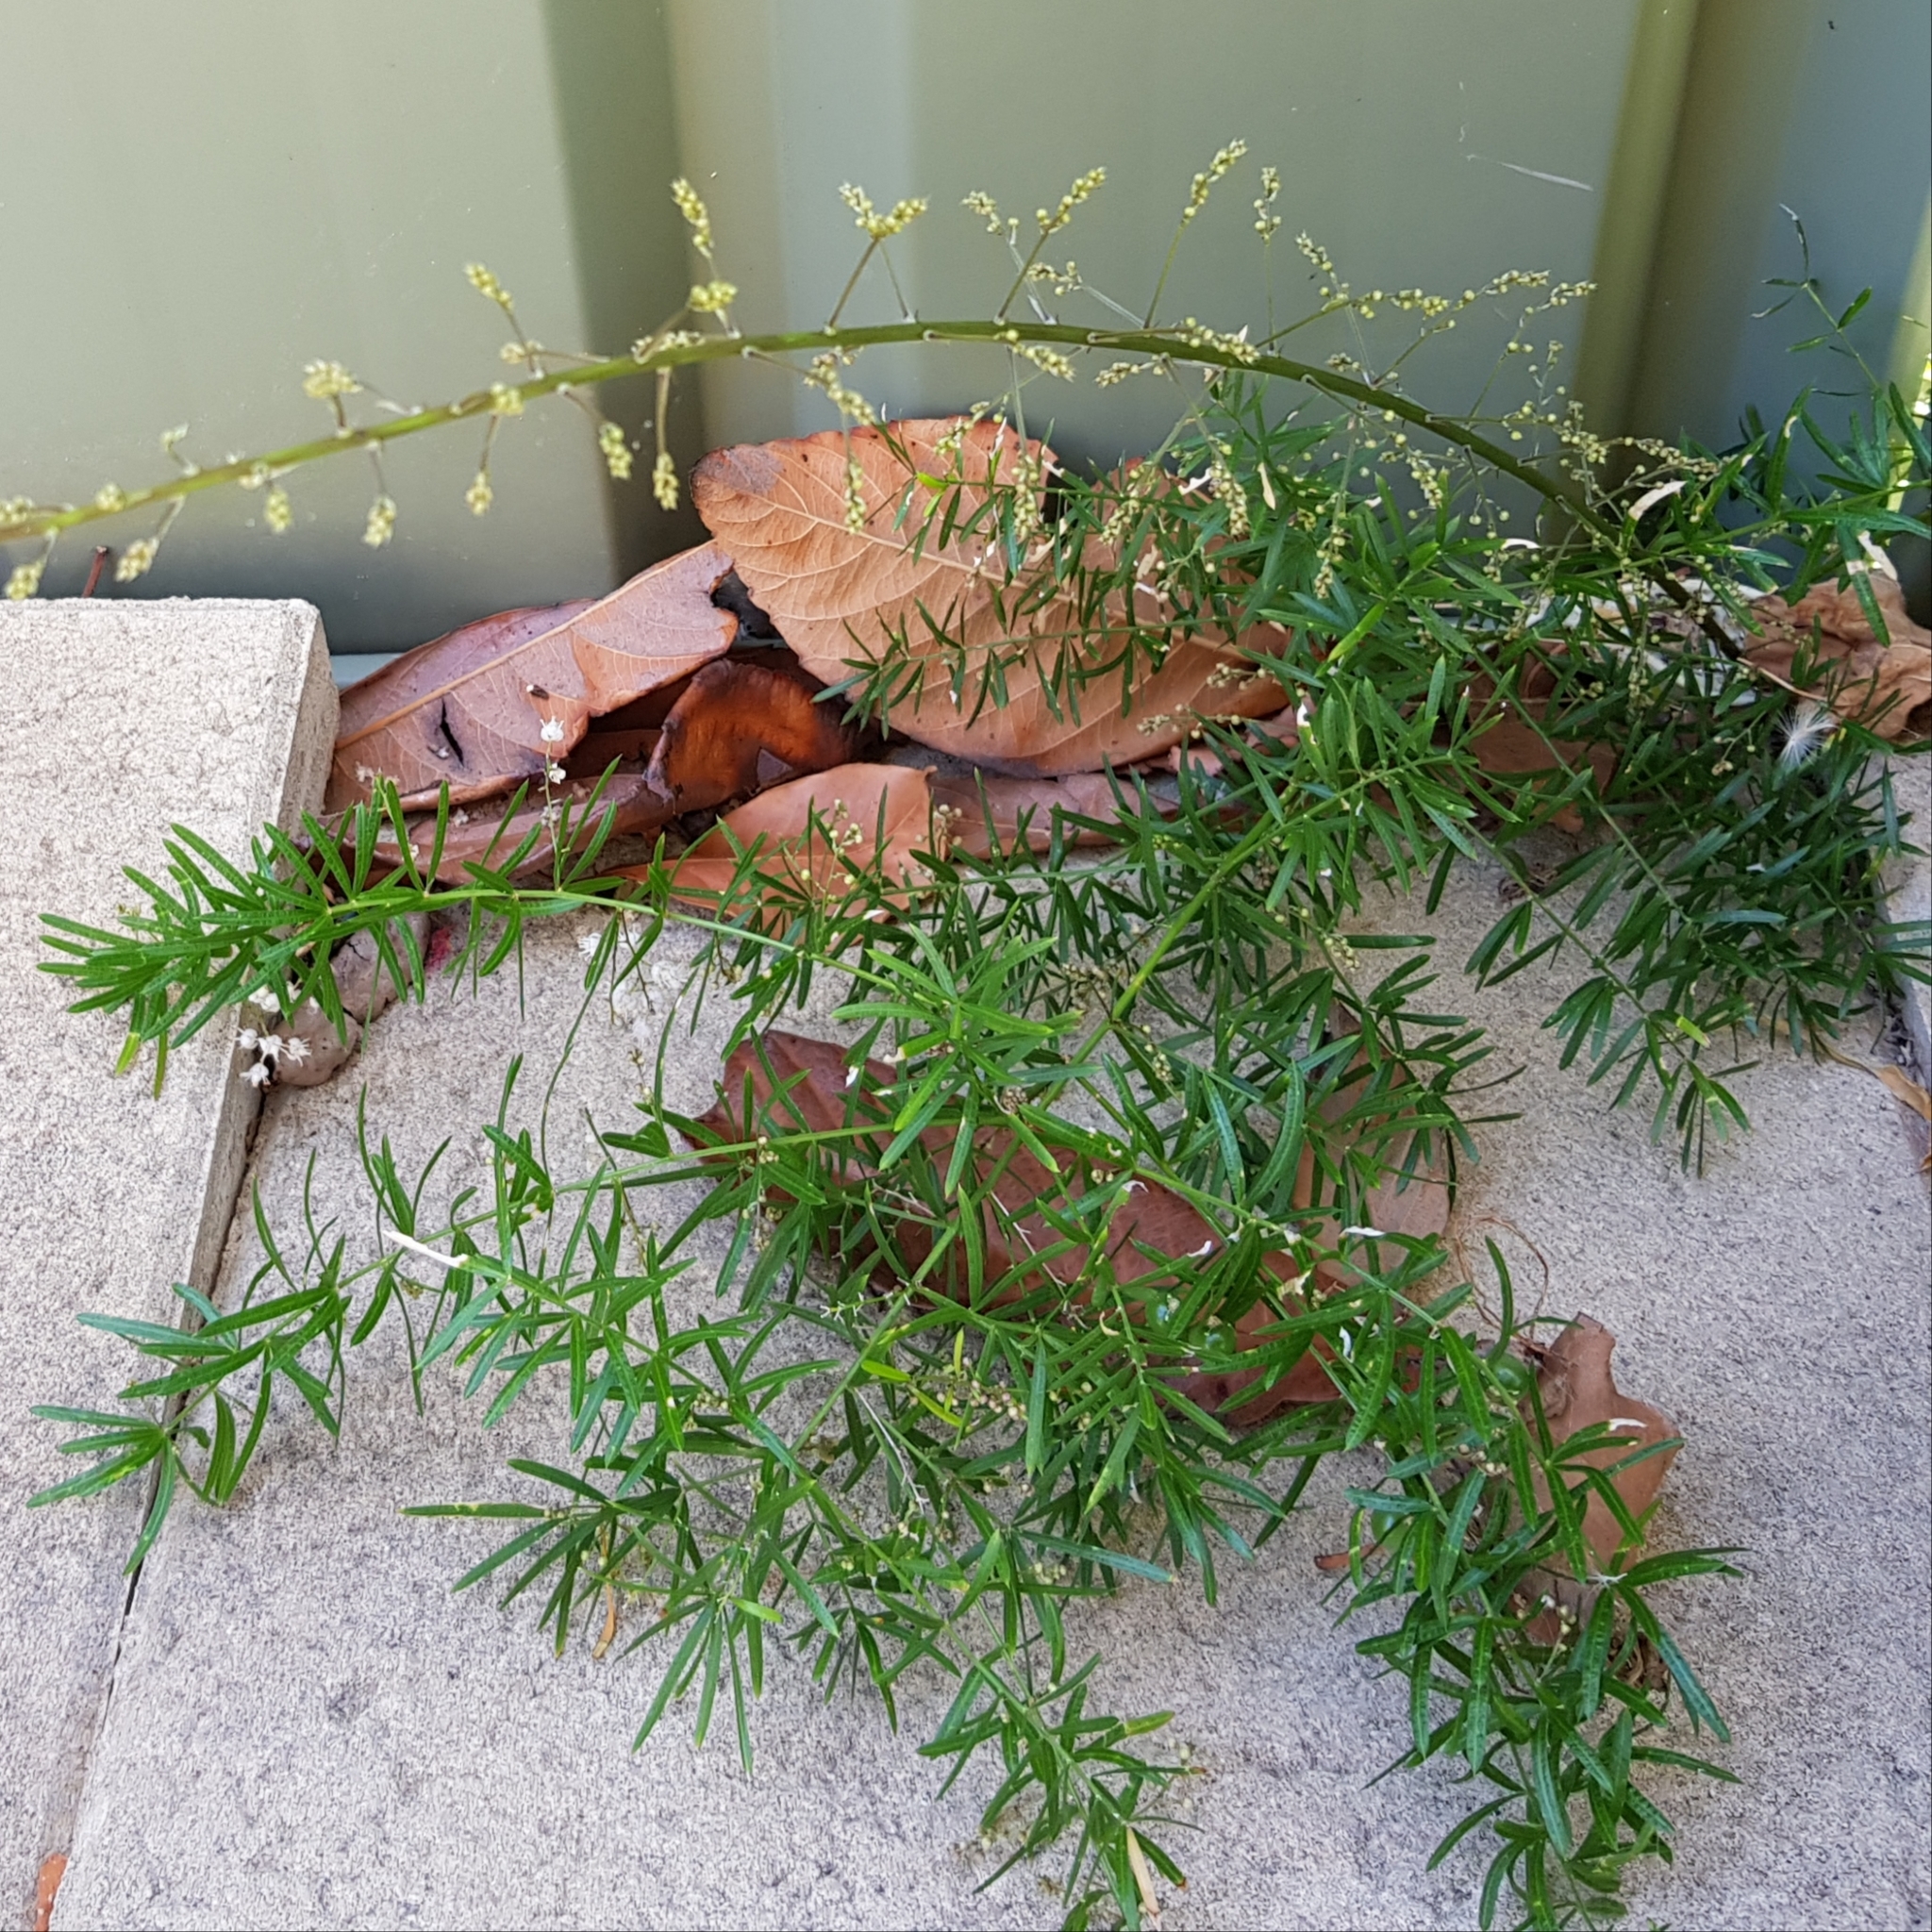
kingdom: Plantae
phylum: Tracheophyta
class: Liliopsida
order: Asparagales
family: Asparagaceae
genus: Asparagus
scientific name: Asparagus aethiopicus
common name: Sprenger's asparagus fern
